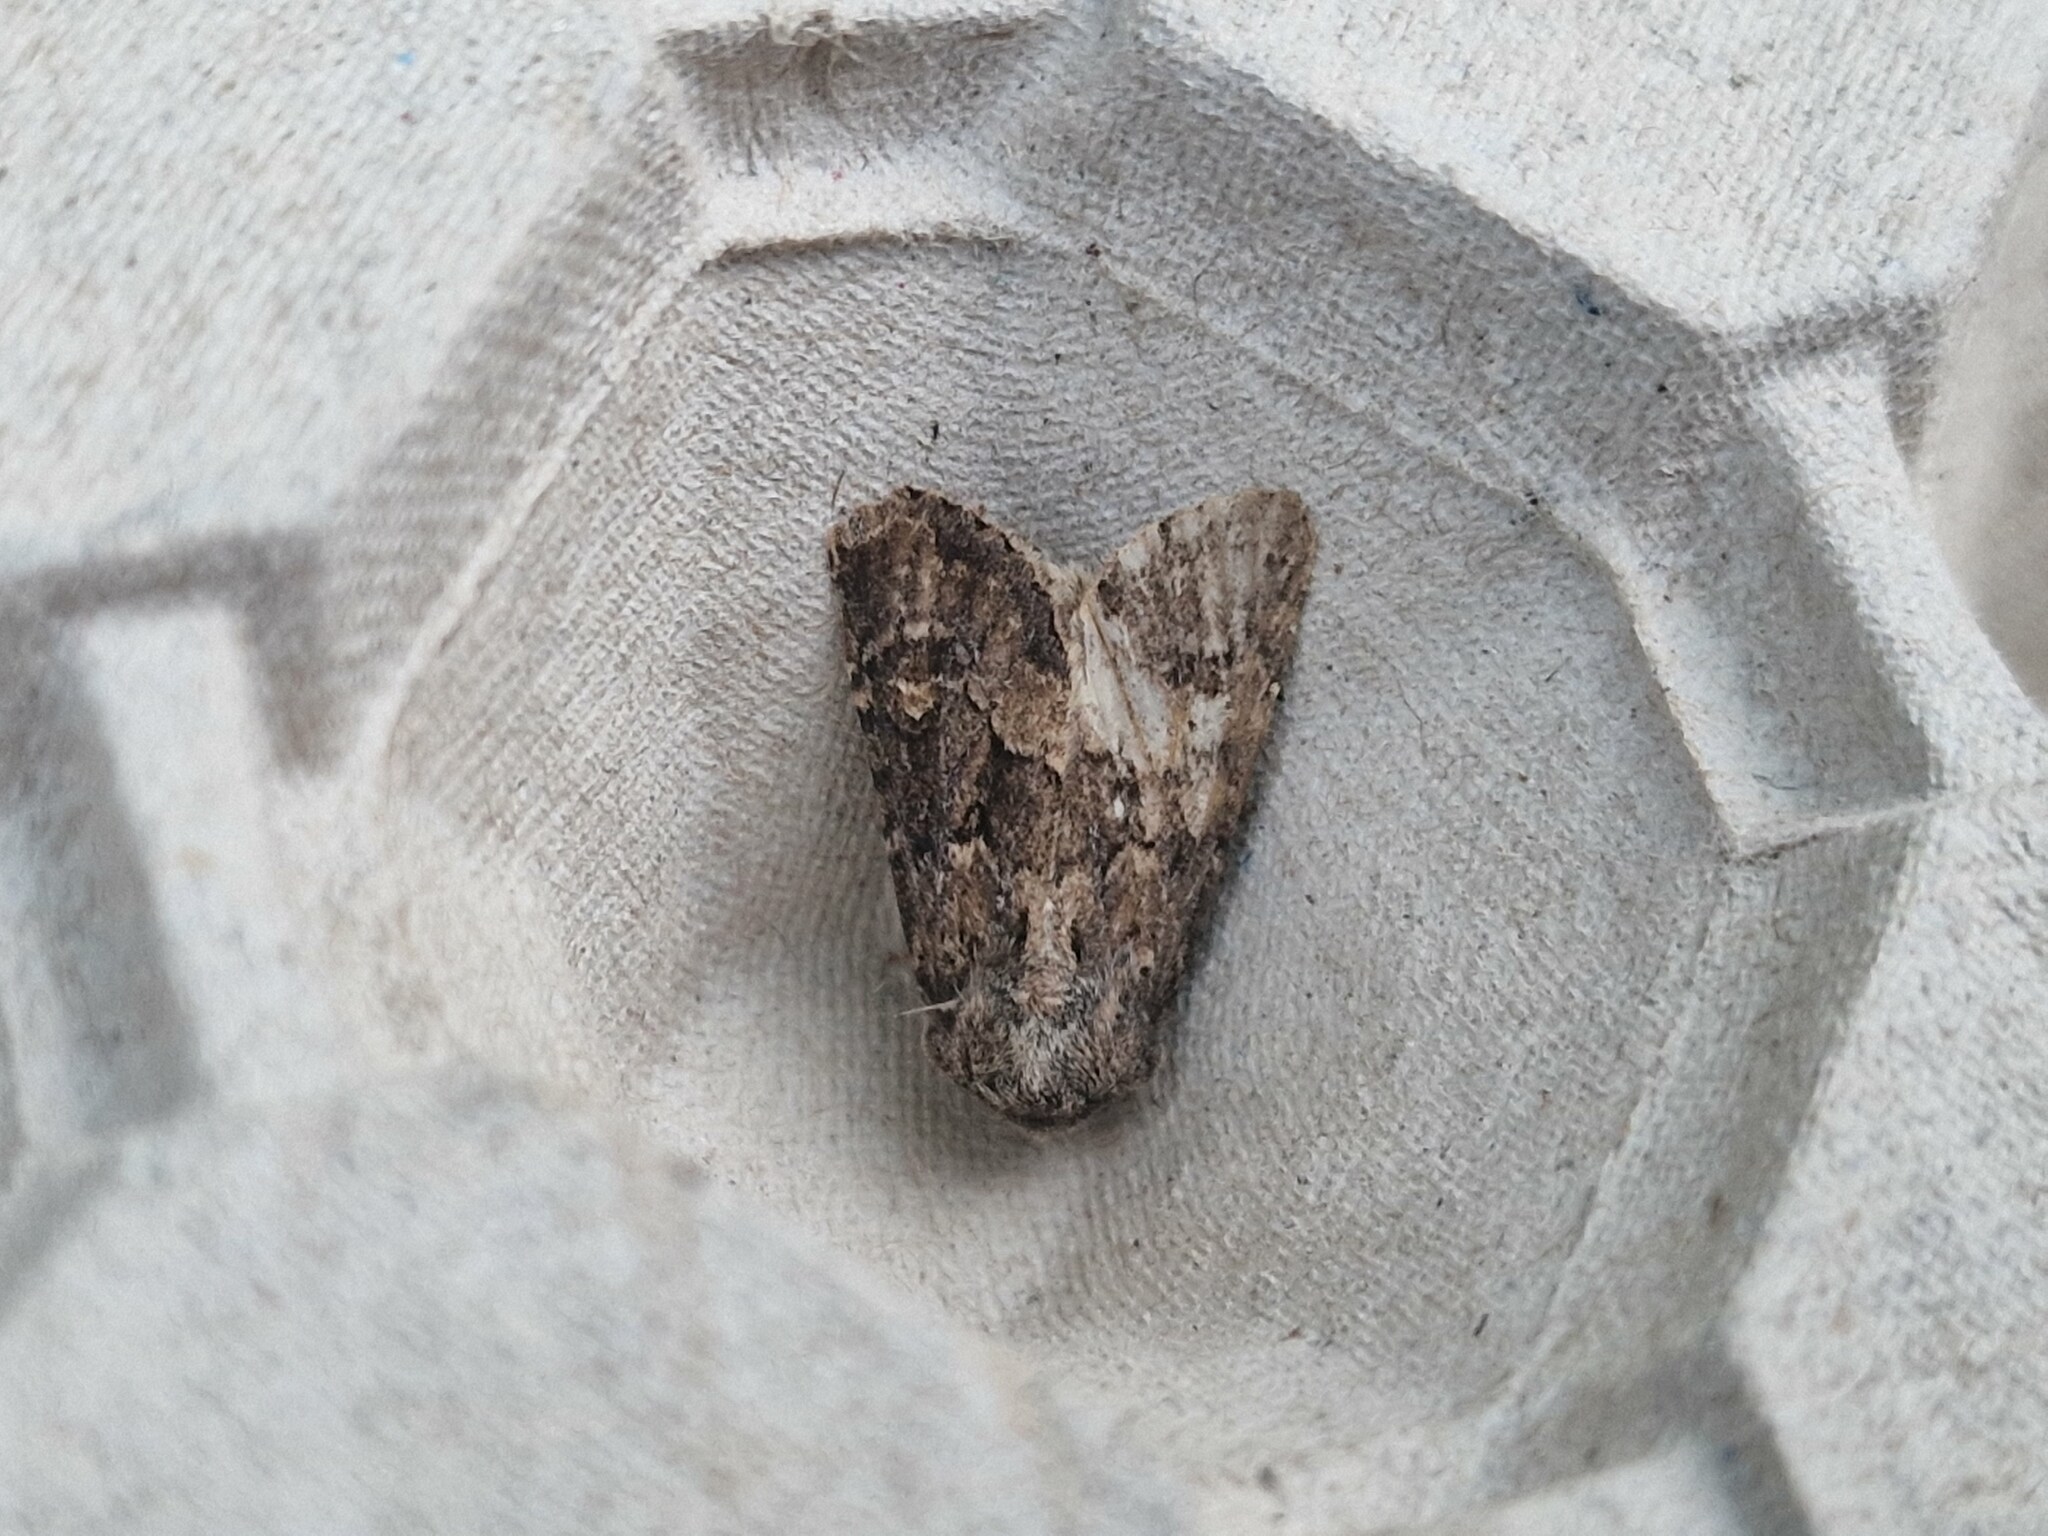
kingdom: Animalia
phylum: Arthropoda
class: Insecta
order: Lepidoptera
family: Noctuidae
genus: Luperina
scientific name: Luperina testacea
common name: Flounced rustic
